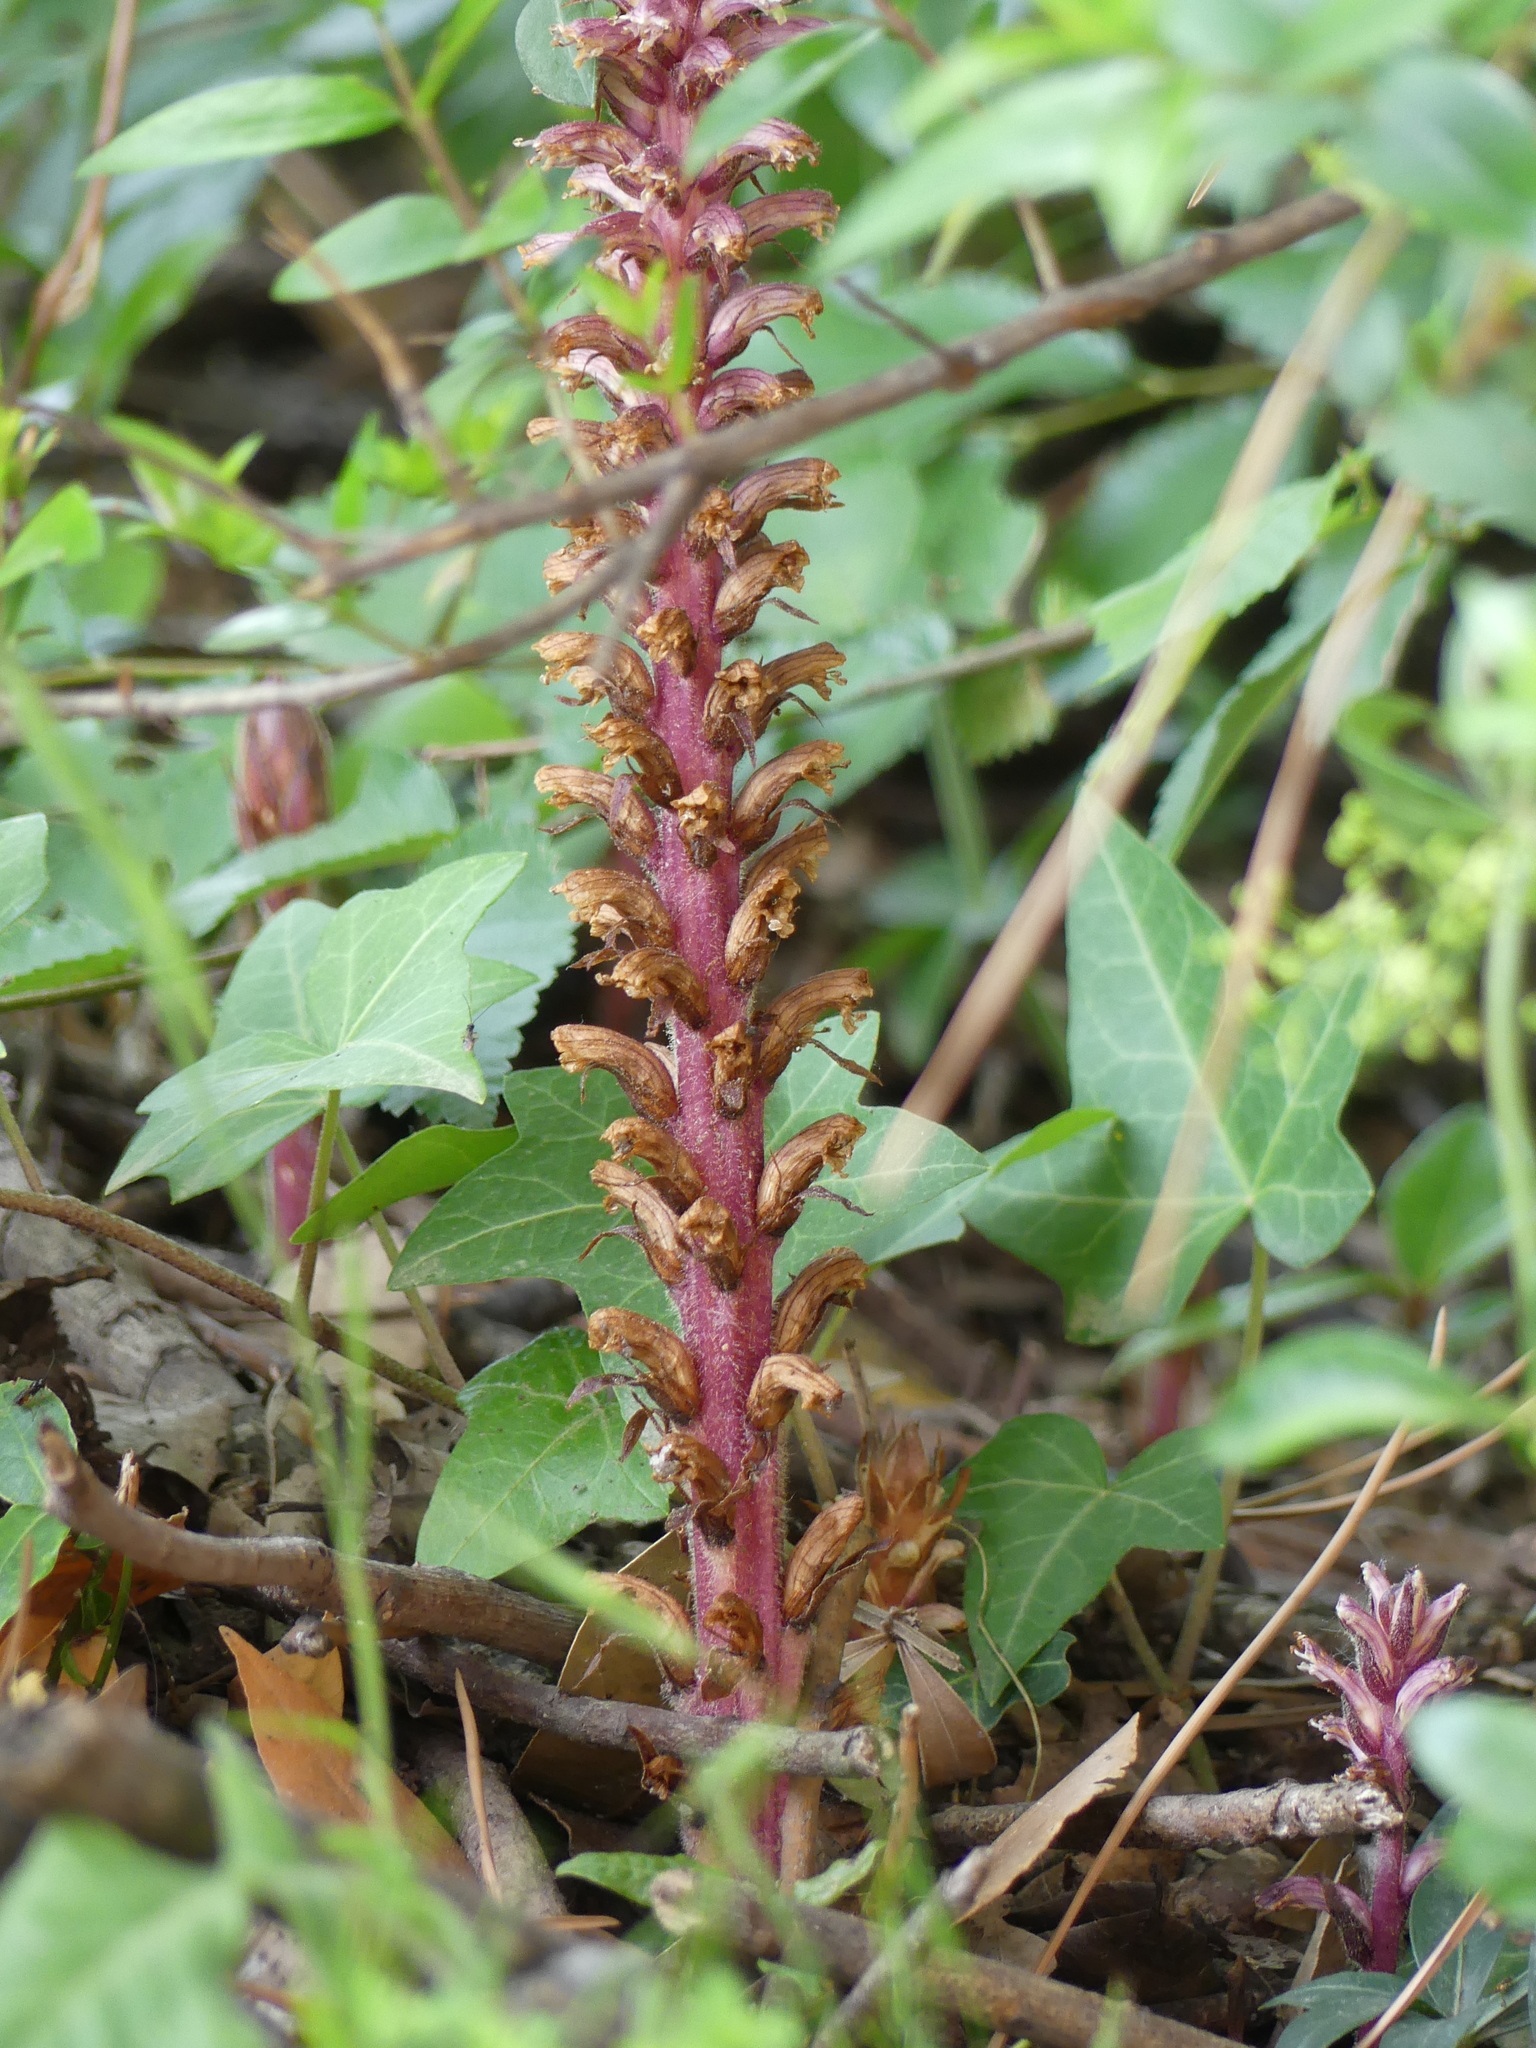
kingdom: Plantae
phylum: Tracheophyta
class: Magnoliopsida
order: Lamiales
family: Orobanchaceae
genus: Orobanche
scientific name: Orobanche hederae
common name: Ivy broomrape
